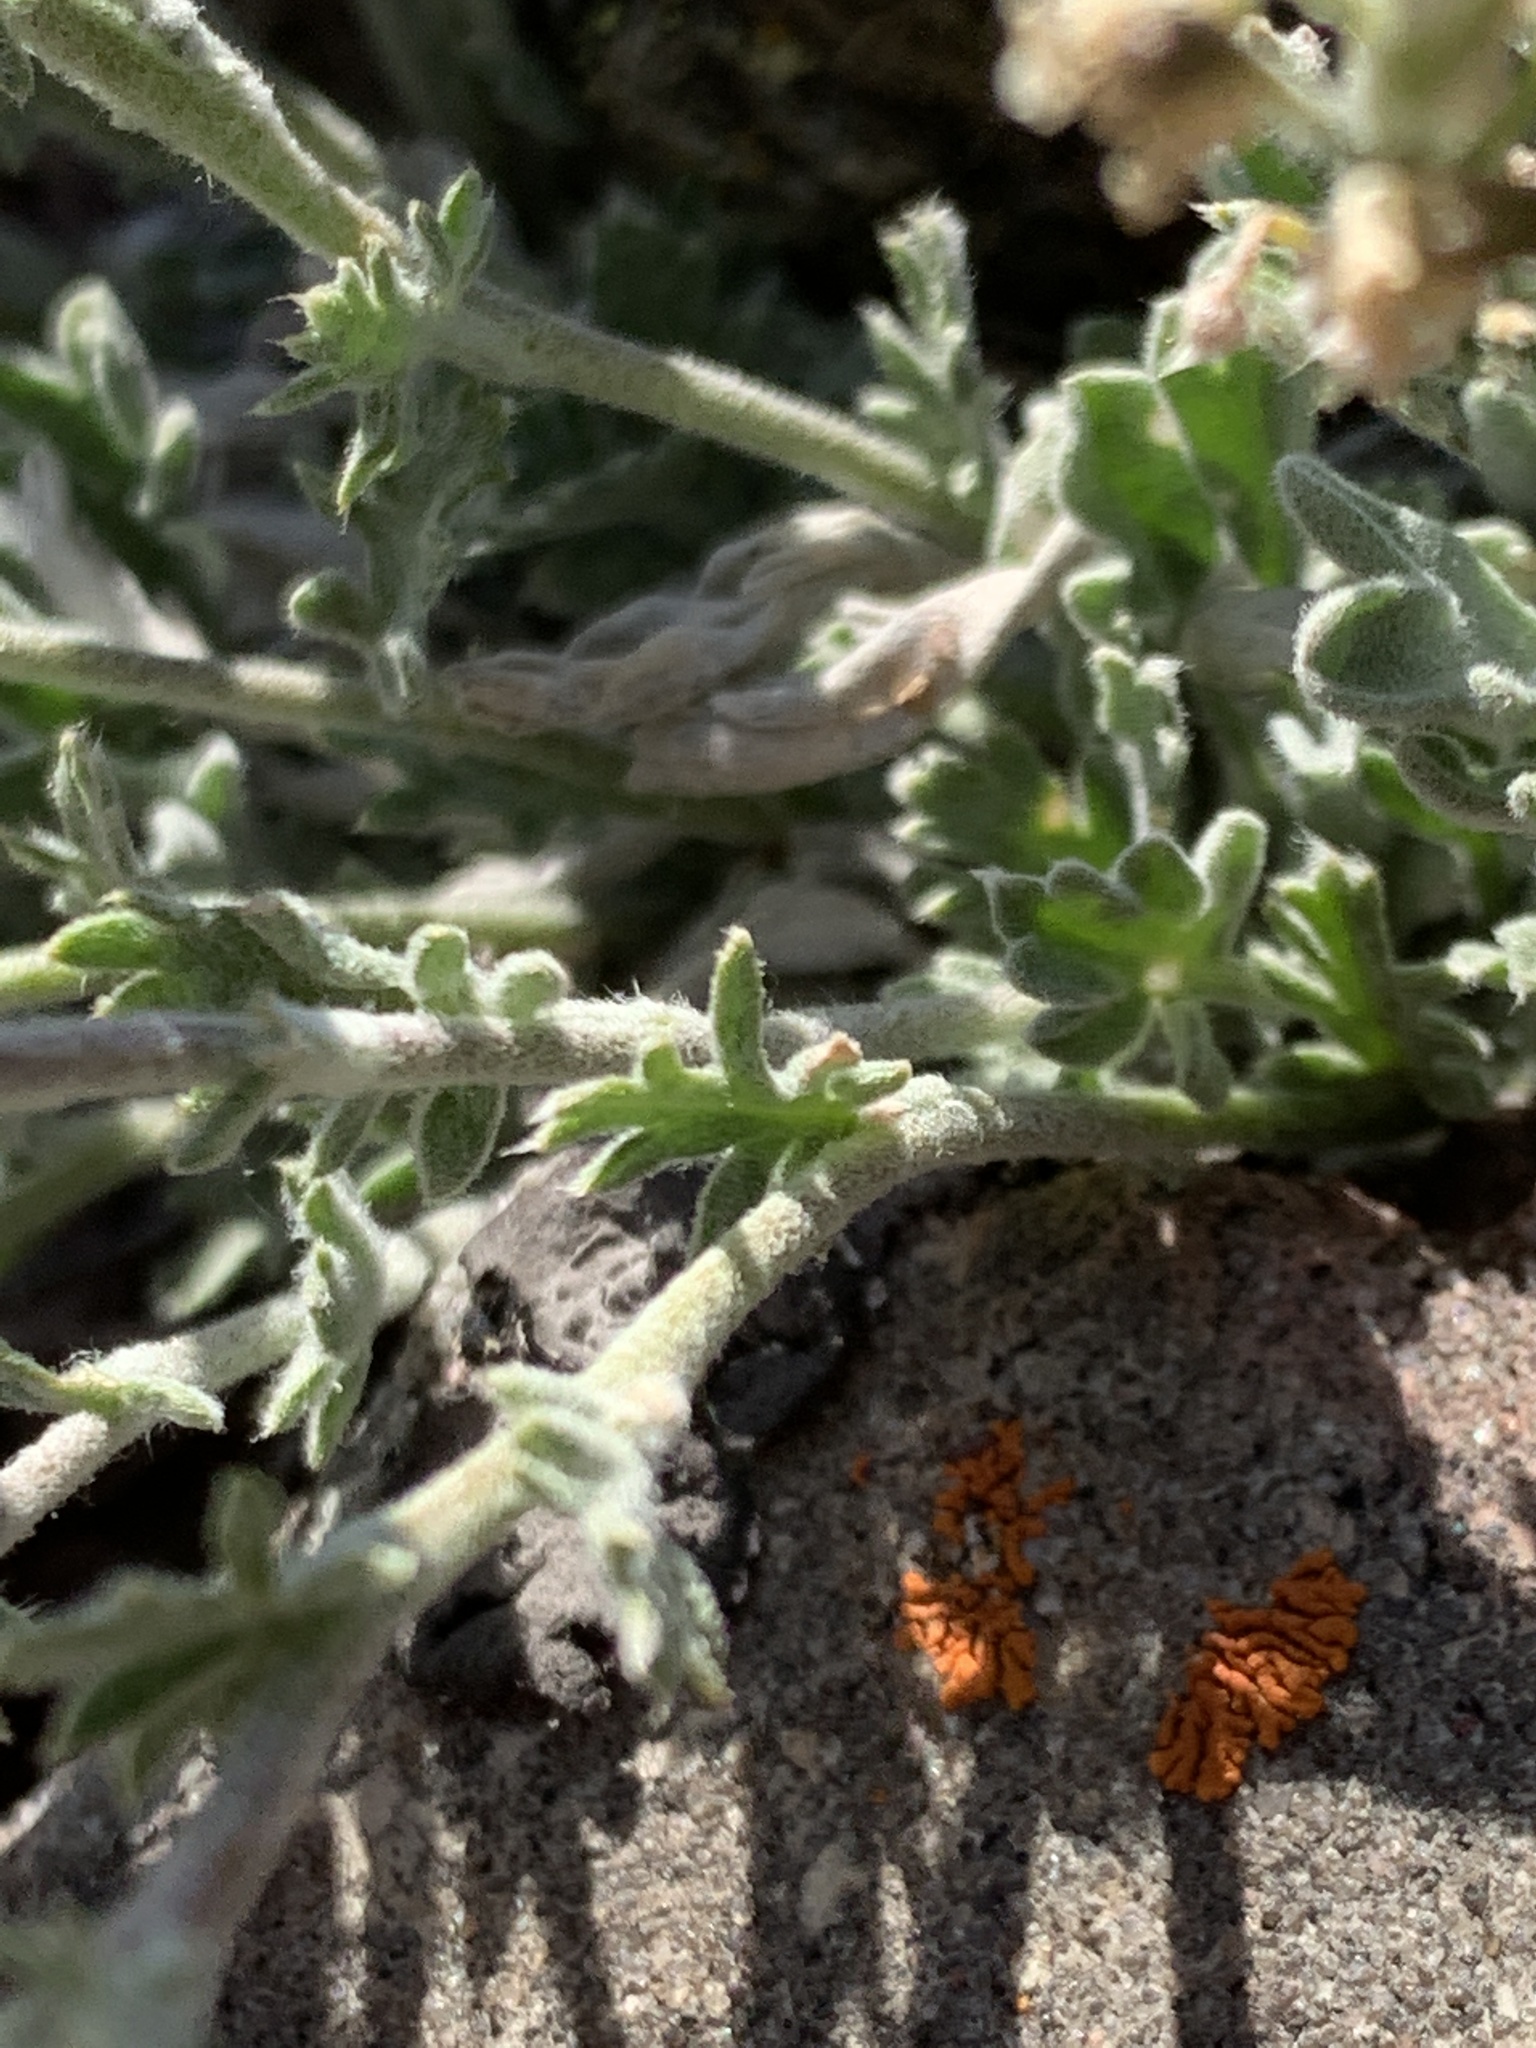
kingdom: Plantae
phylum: Tracheophyta
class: Magnoliopsida
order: Brassicales
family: Brassicaceae
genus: Smelowskia
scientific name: Smelowskia americana
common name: American false candytuft
